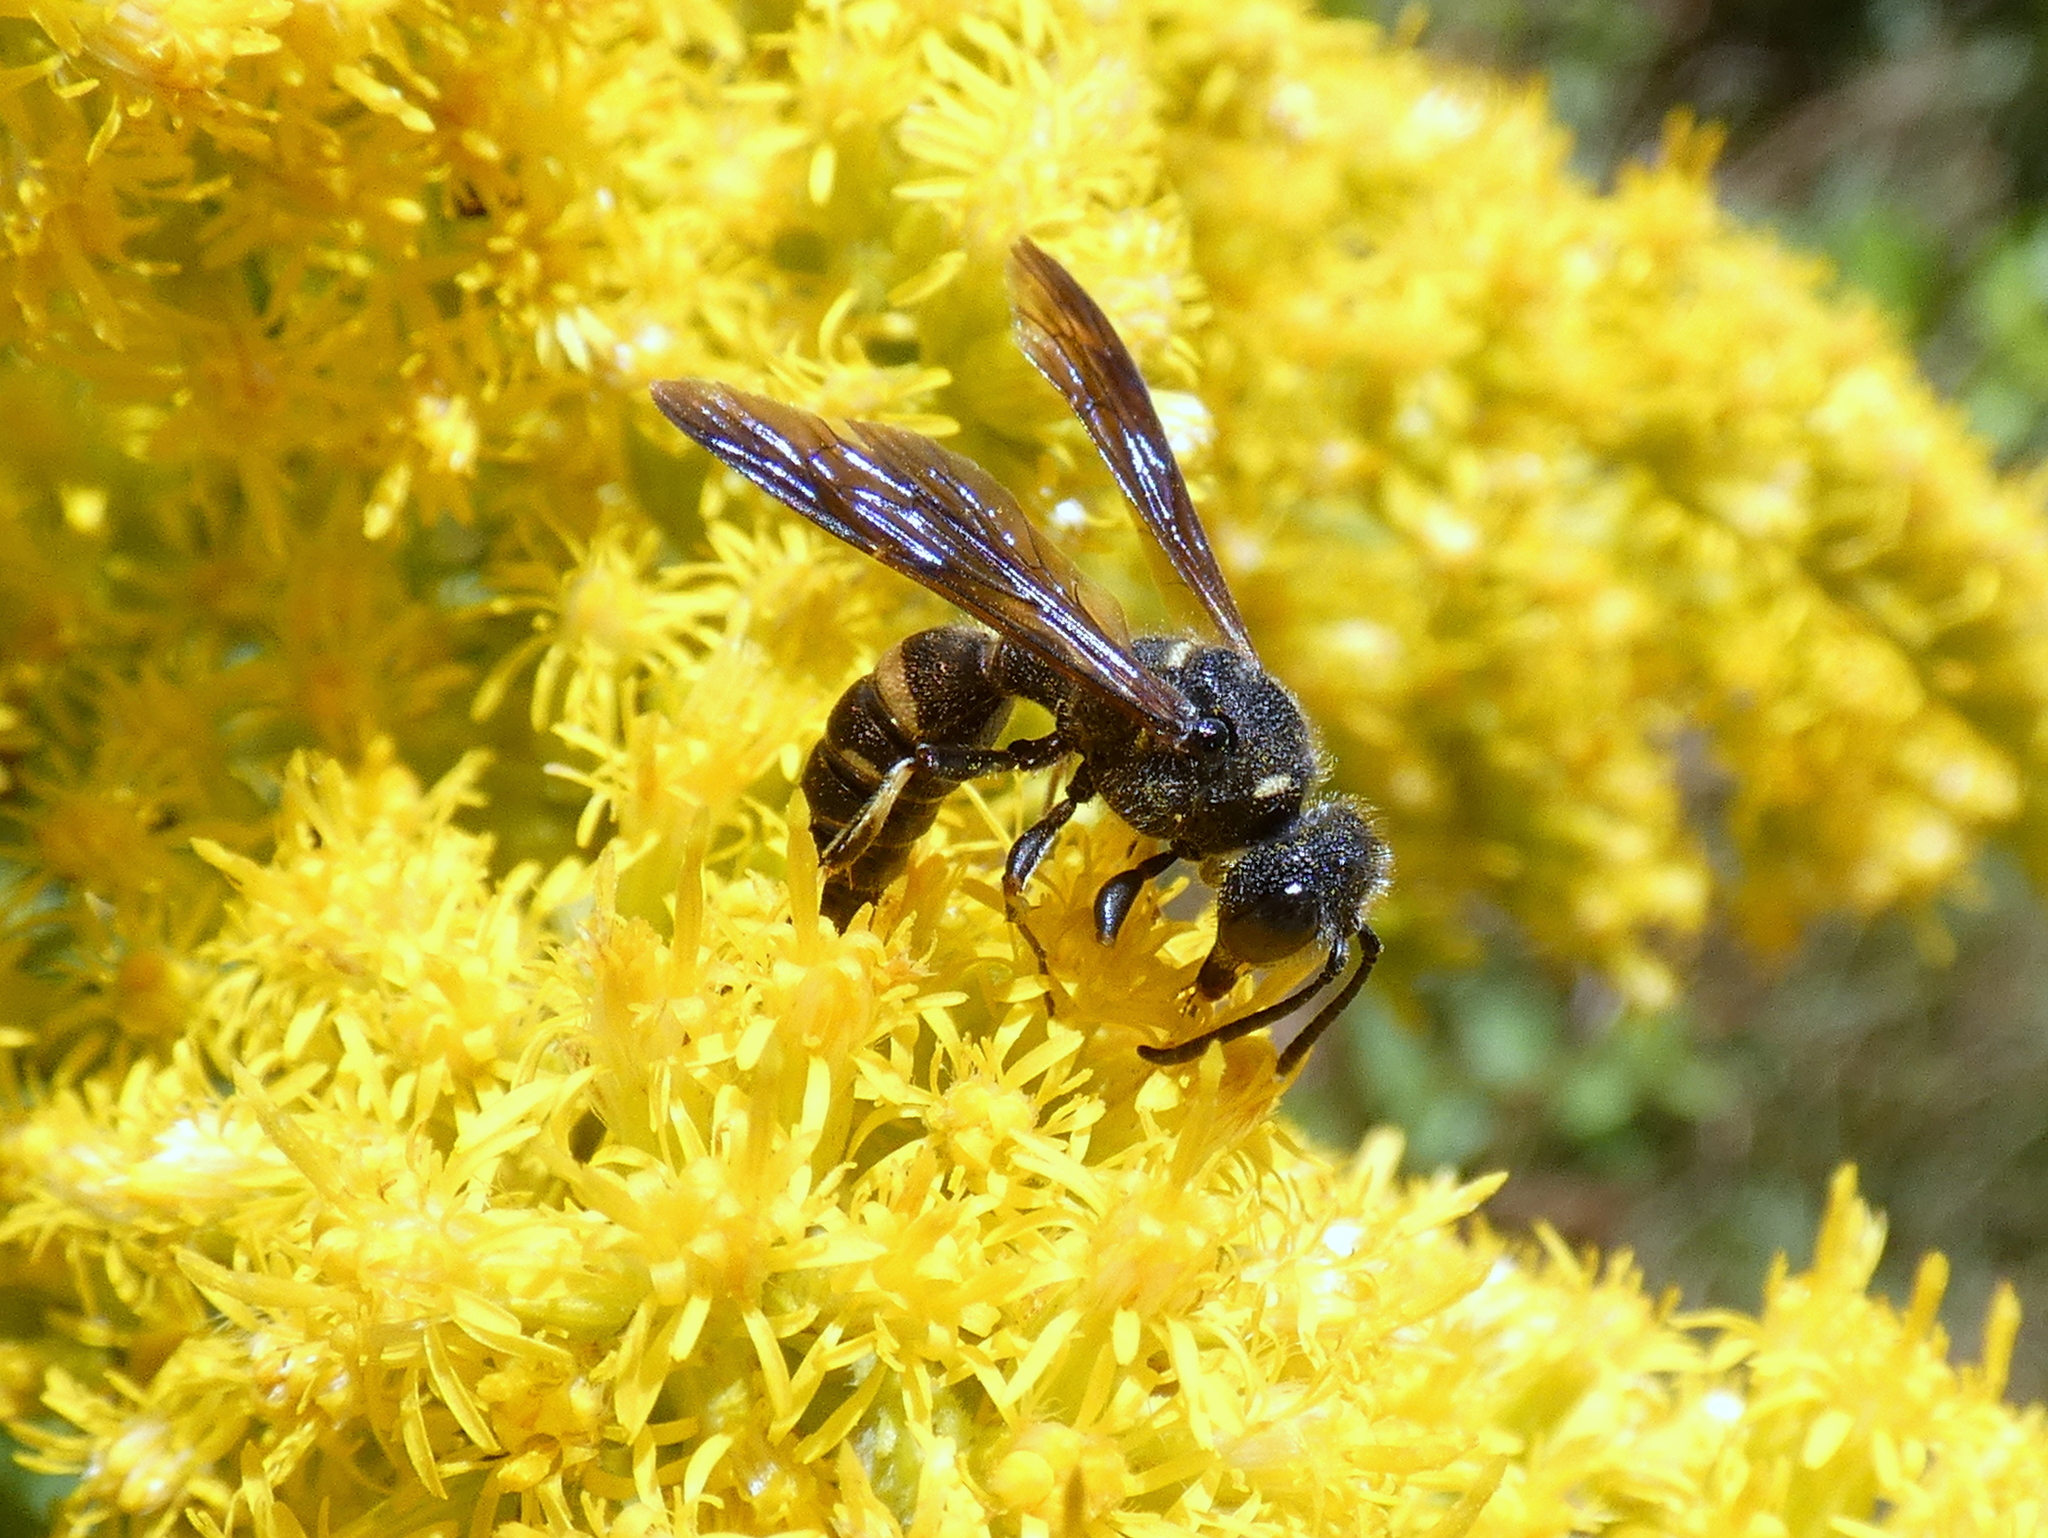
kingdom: Animalia
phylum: Arthropoda
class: Insecta
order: Hymenoptera
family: Crabronidae
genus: Cerceris
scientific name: Cerceris fumipennis
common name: Smokey-winged beetle bandit wasp
